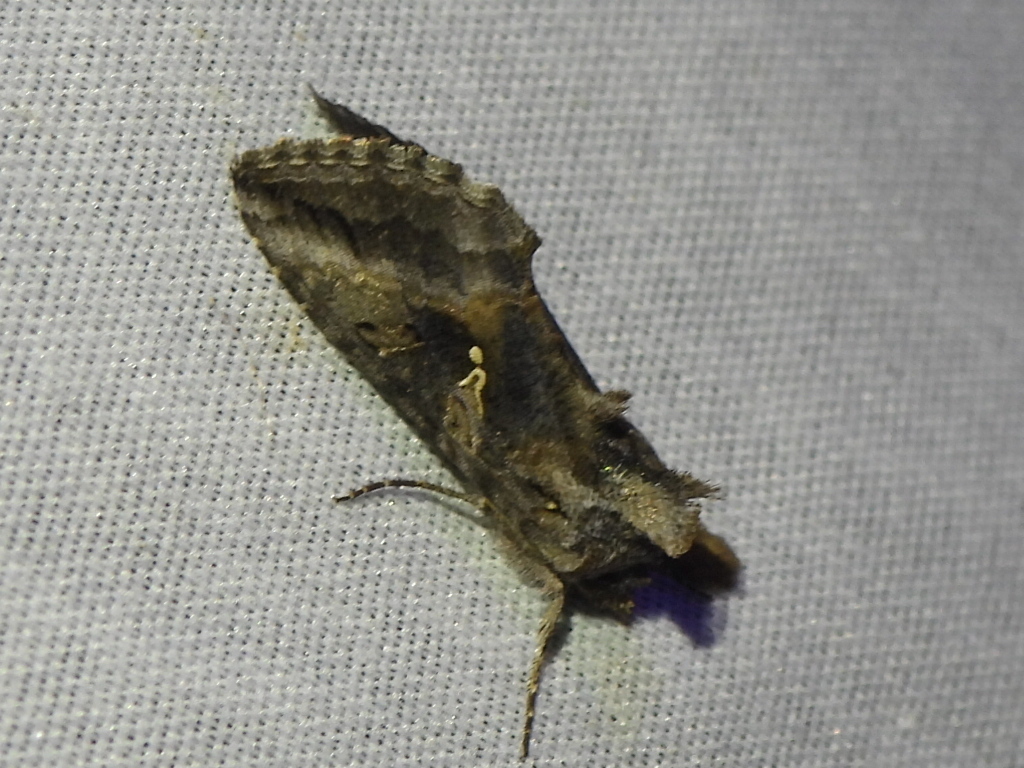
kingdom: Animalia
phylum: Arthropoda
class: Insecta
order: Lepidoptera
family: Noctuidae
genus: Rachiplusia
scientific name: Rachiplusia ou
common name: Gray looper moth
